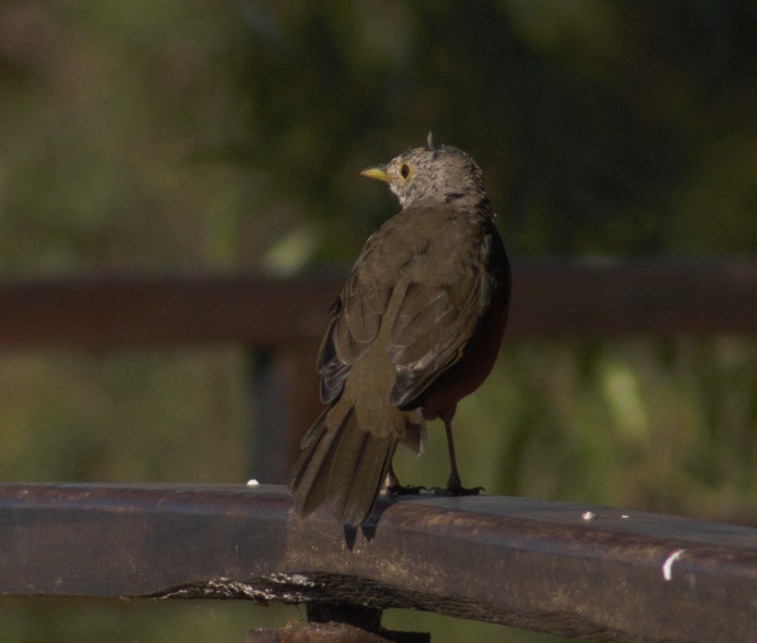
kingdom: Animalia
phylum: Chordata
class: Aves
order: Passeriformes
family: Turdidae
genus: Turdus
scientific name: Turdus rufiventris
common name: Rufous-bellied thrush
